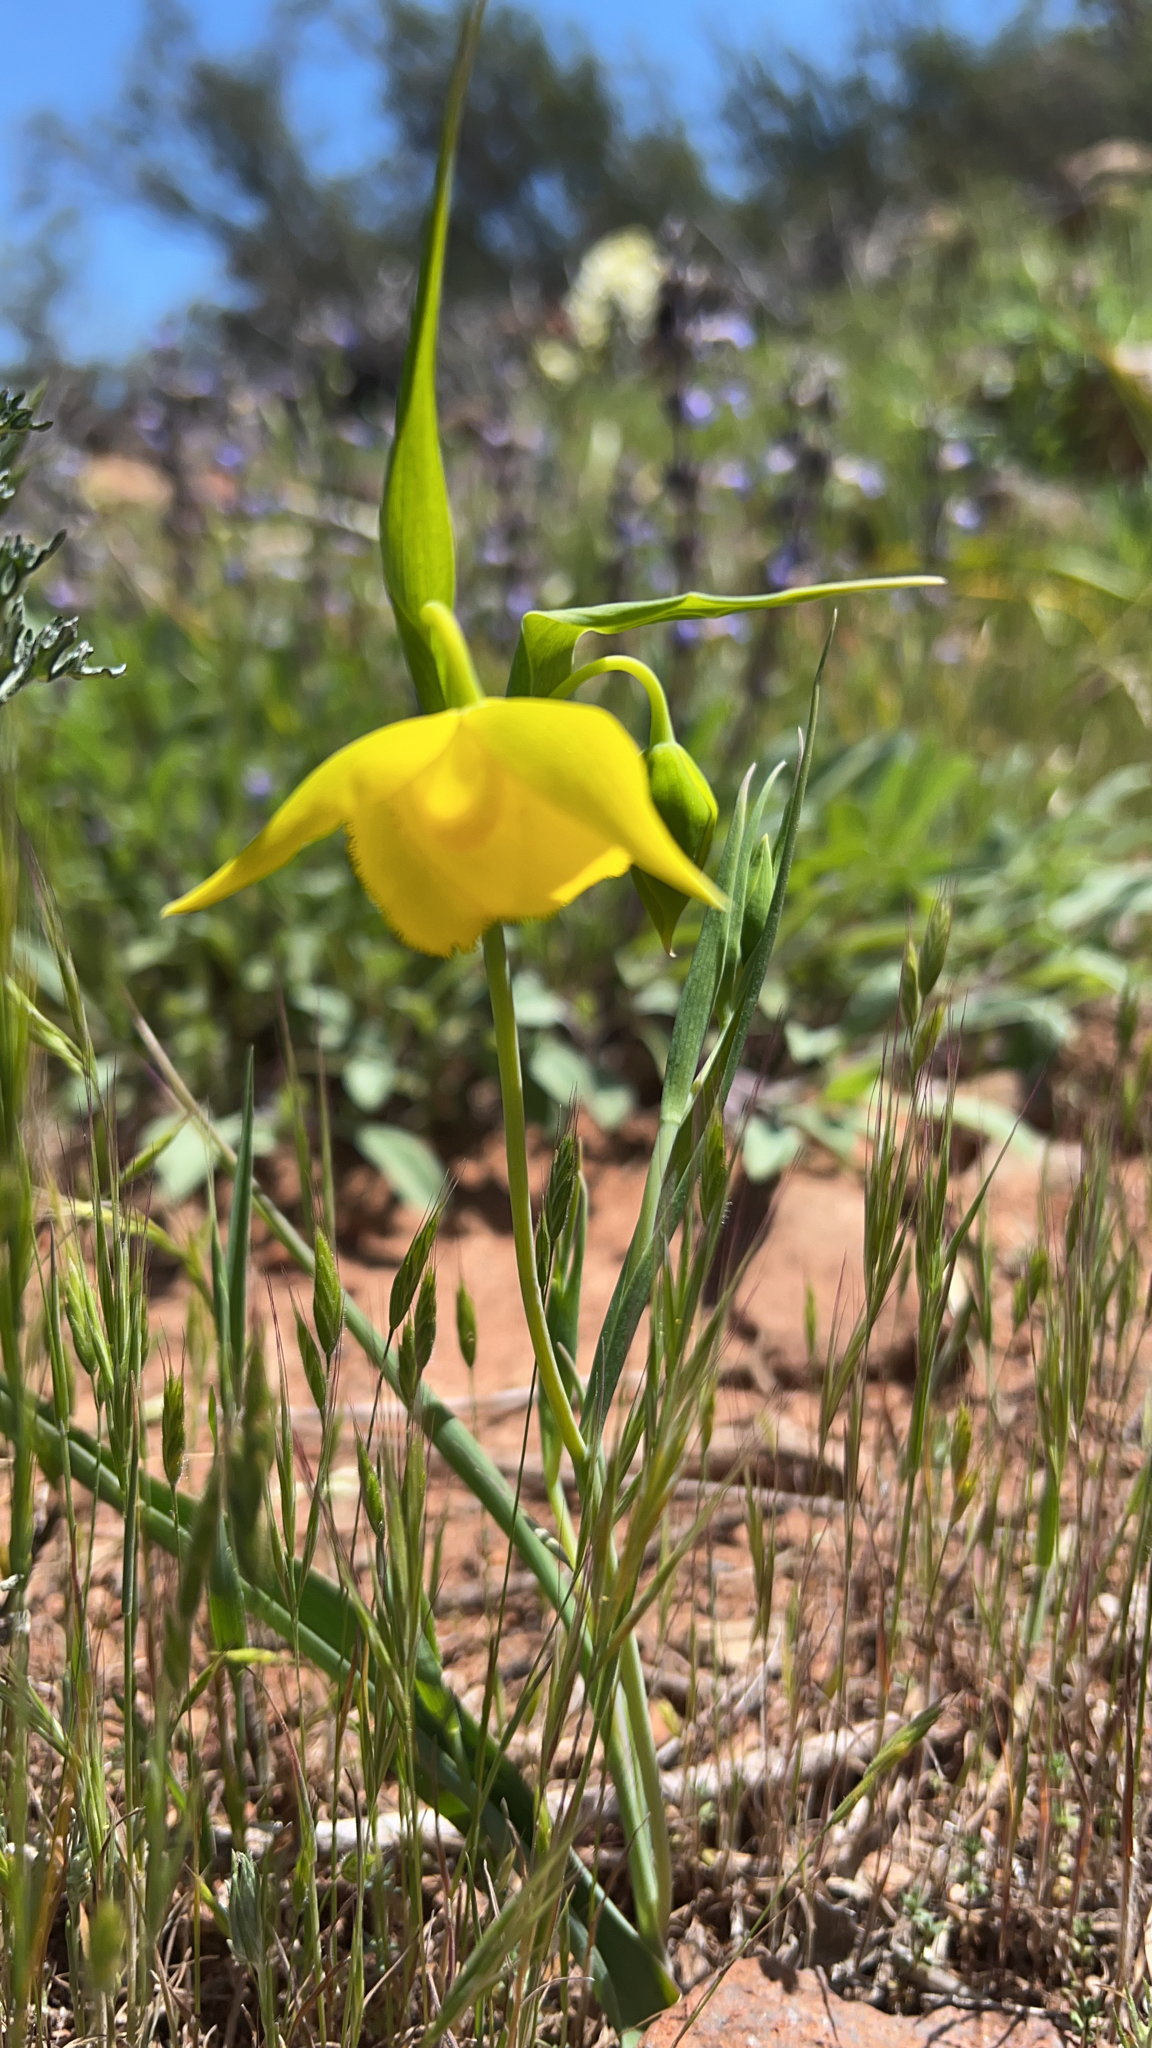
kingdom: Plantae
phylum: Tracheophyta
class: Liliopsida
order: Liliales
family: Liliaceae
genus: Calochortus
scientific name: Calochortus amabilis
